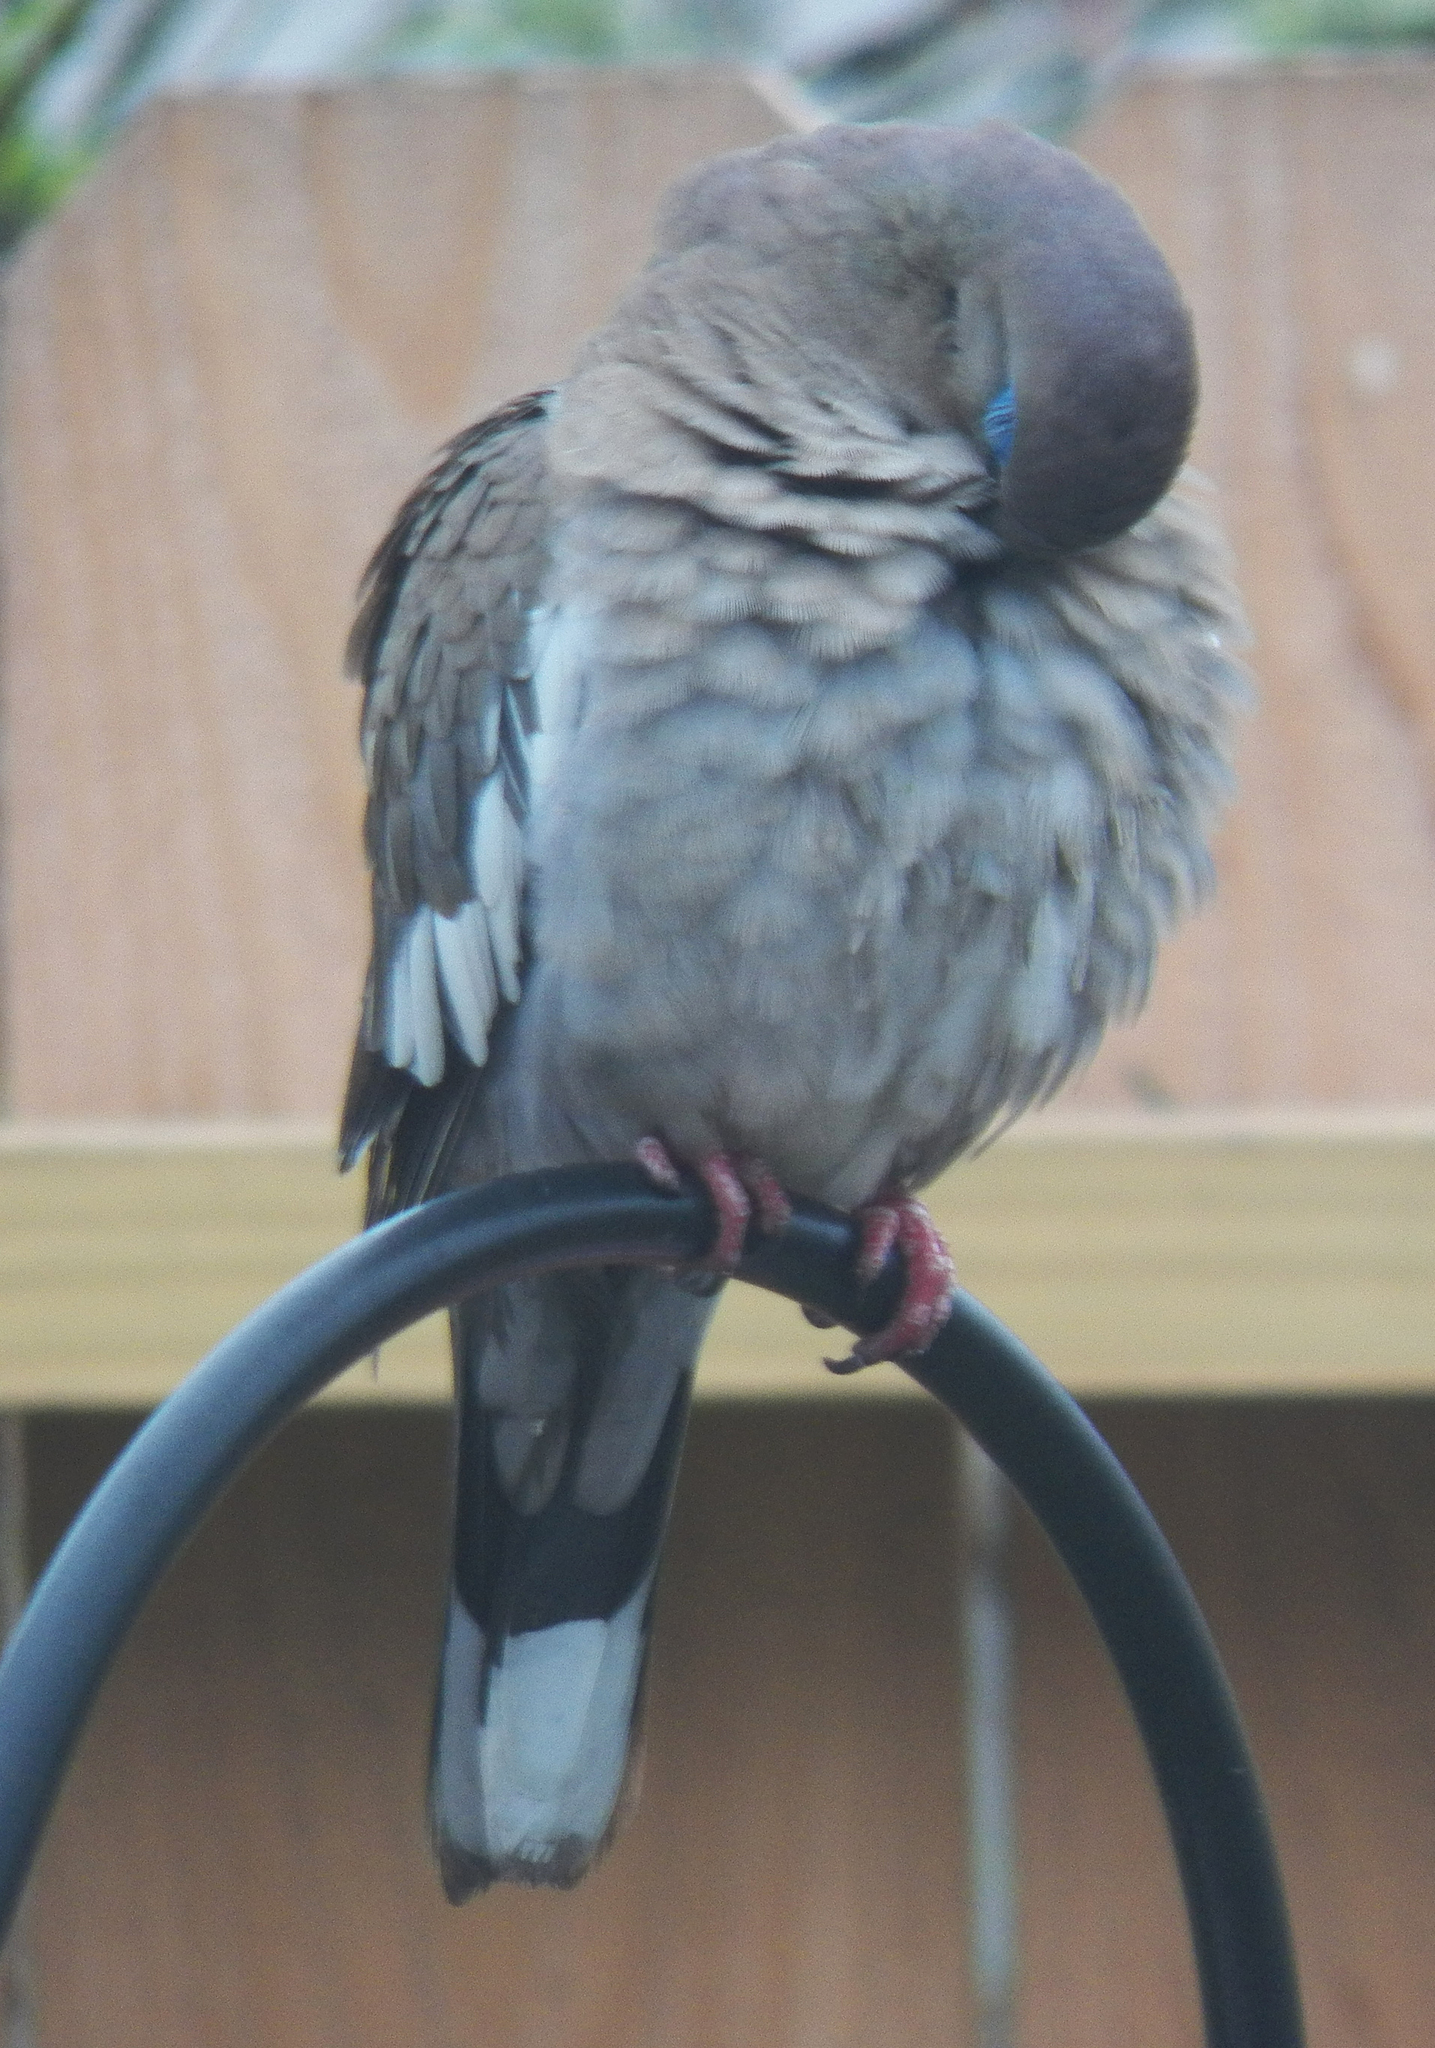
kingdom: Animalia
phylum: Chordata
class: Aves
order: Columbiformes
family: Columbidae
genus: Zenaida
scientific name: Zenaida asiatica
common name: White-winged dove
